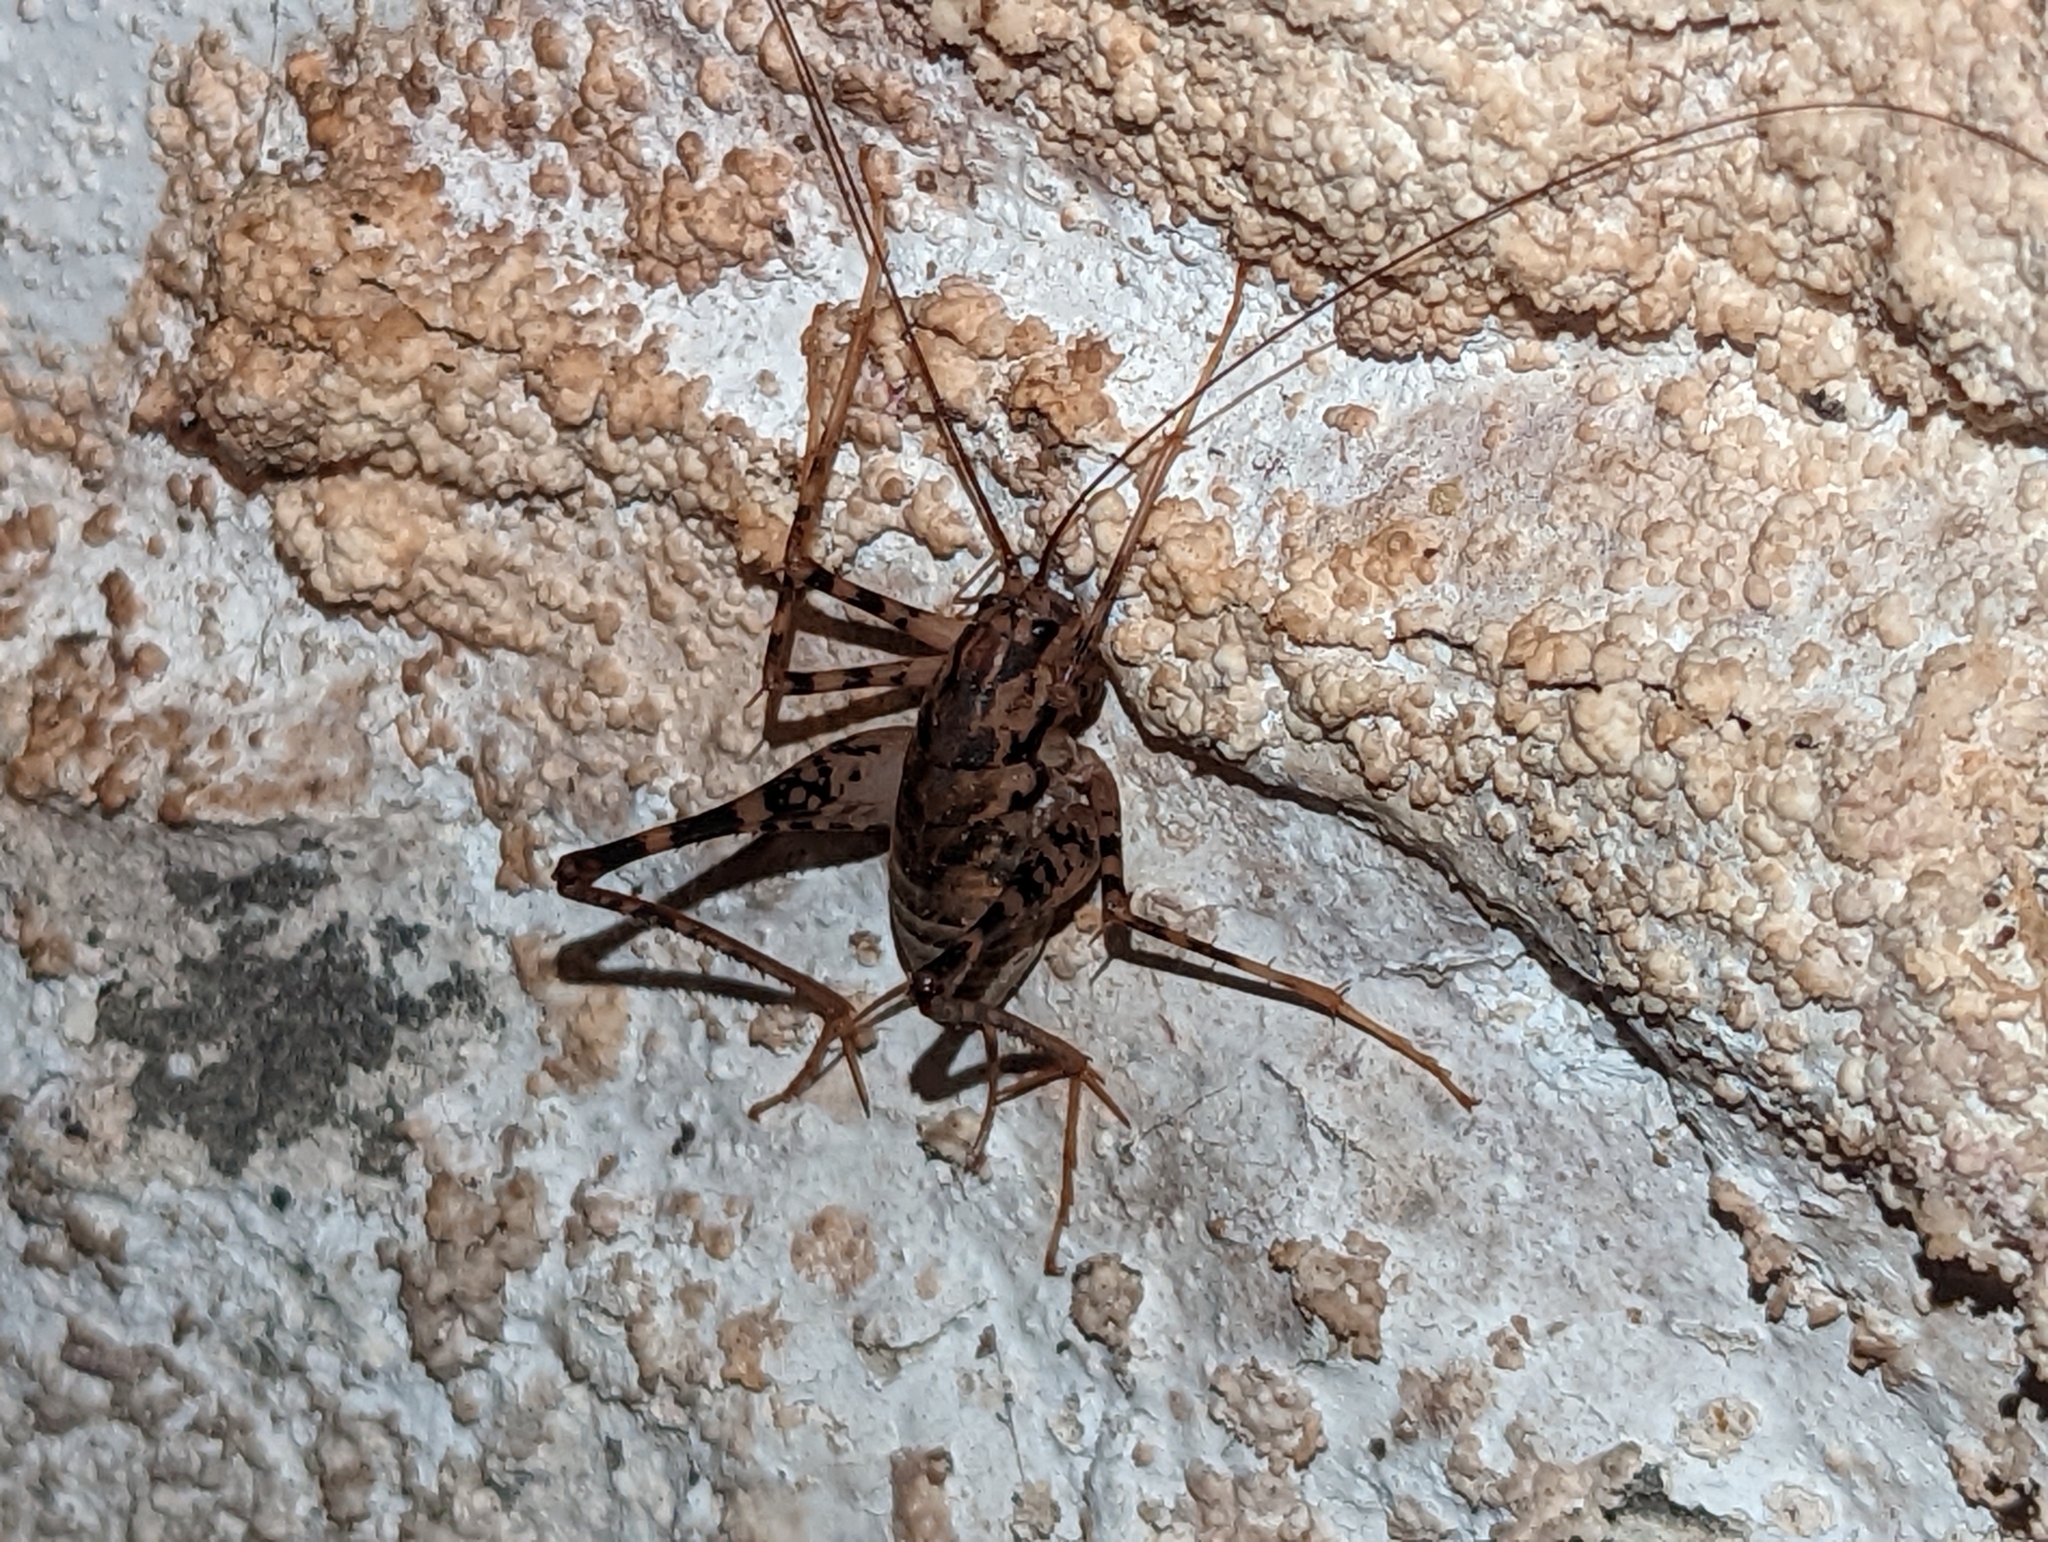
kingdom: Animalia
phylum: Arthropoda
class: Insecta
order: Orthoptera
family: Rhaphidophoridae
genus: Diestrammena
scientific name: Diestrammena japanica
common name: Japanese camel cricket
